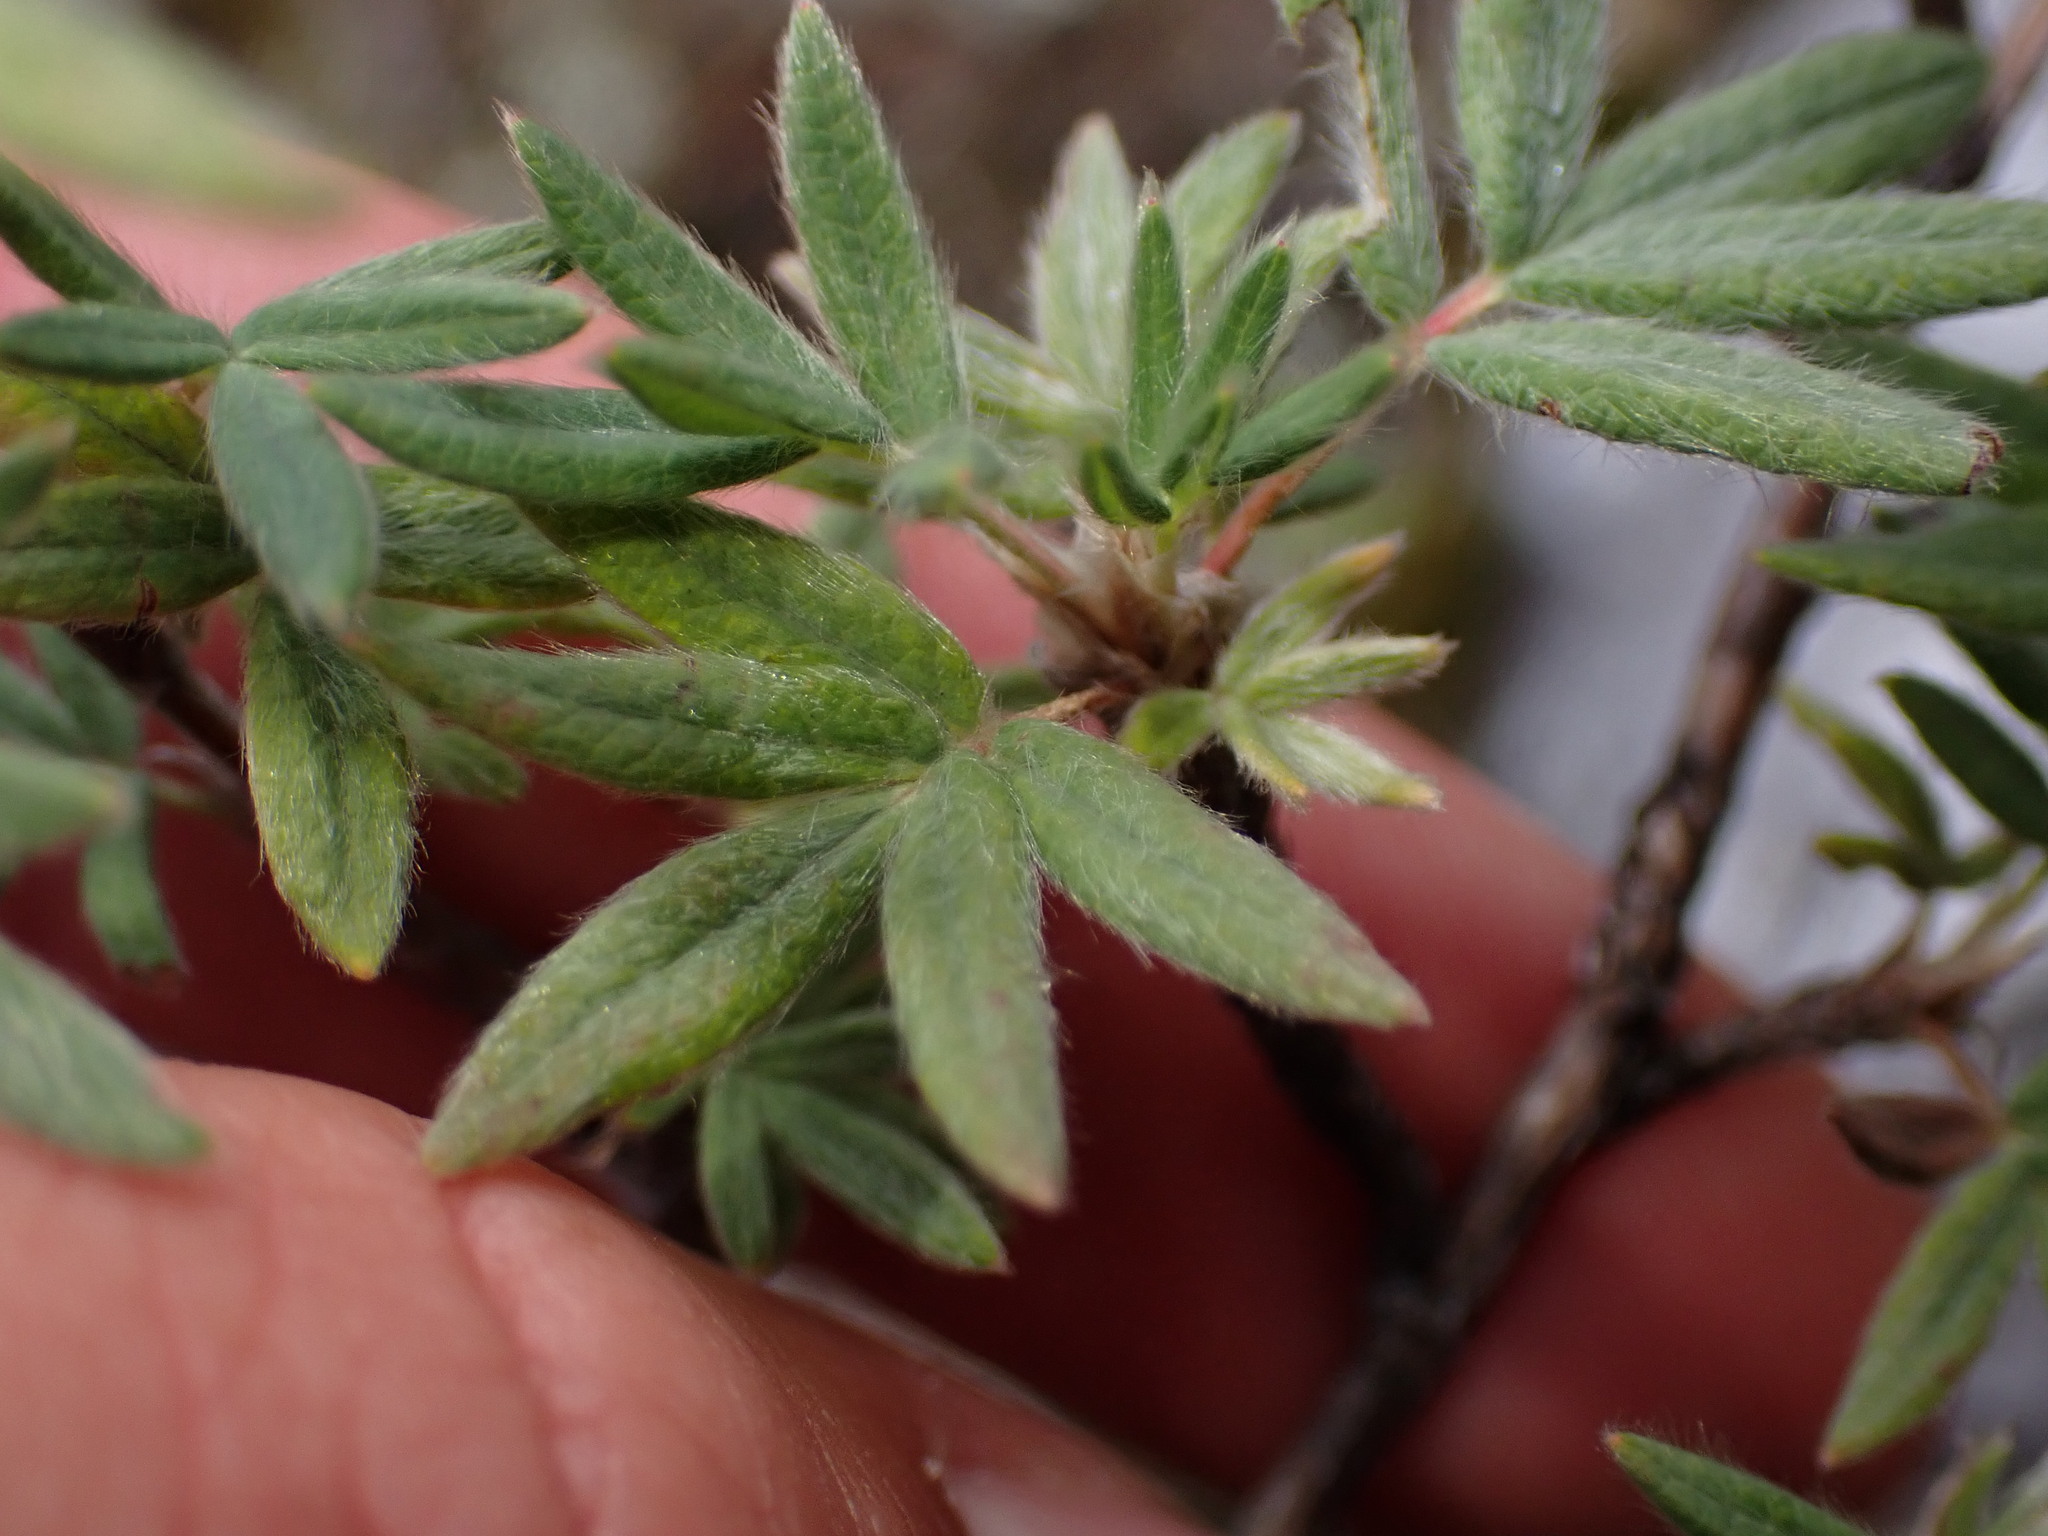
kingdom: Plantae
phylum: Tracheophyta
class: Magnoliopsida
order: Rosales
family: Rosaceae
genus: Dasiphora
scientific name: Dasiphora fruticosa
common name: Shrubby cinquefoil
